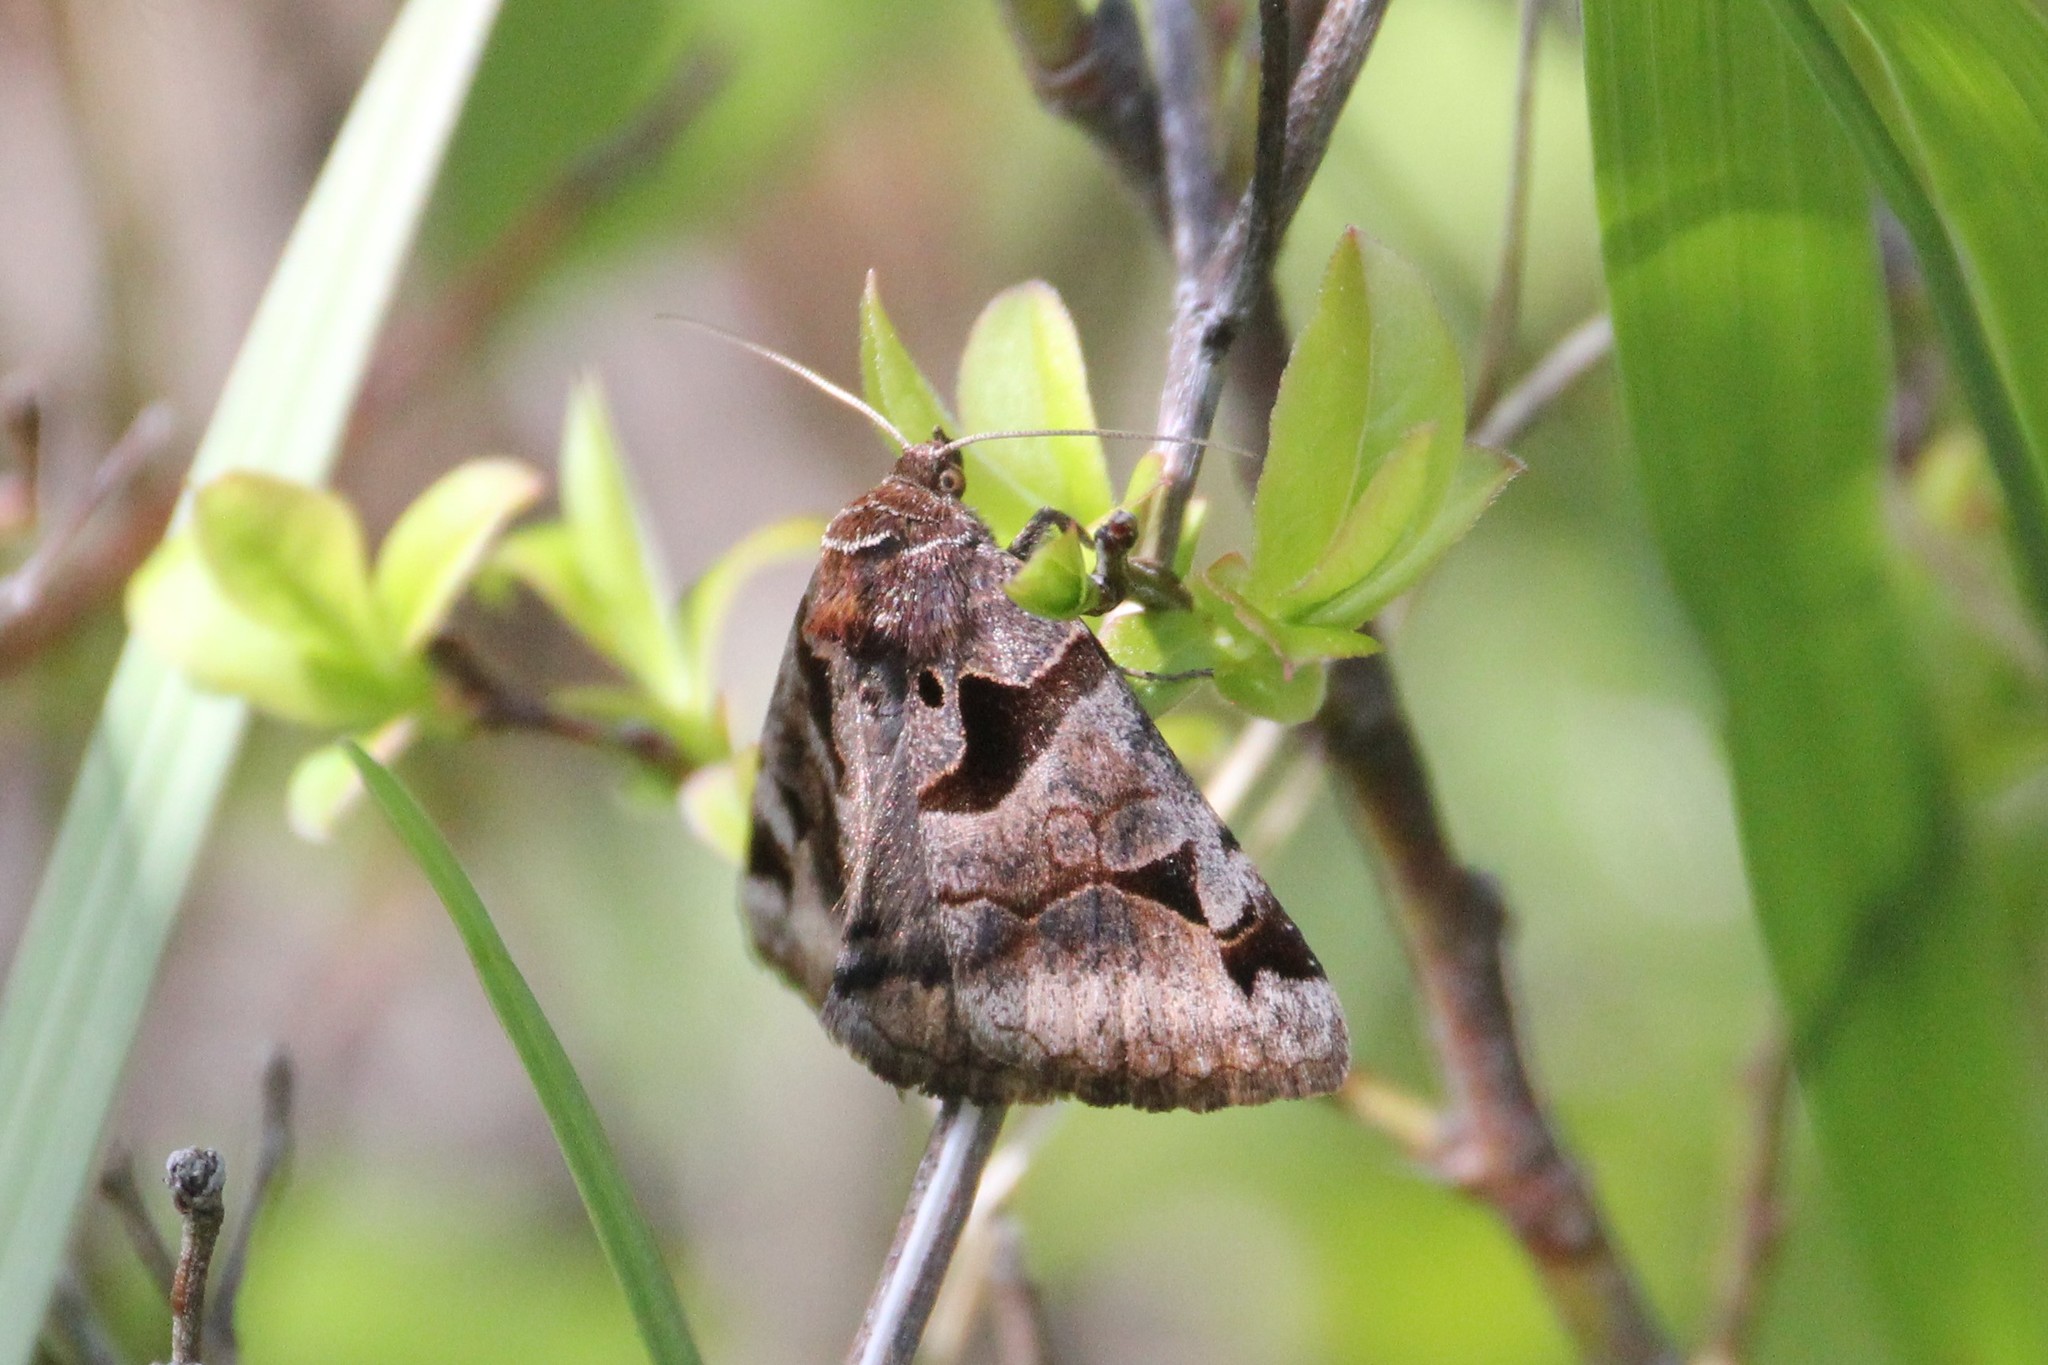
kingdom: Animalia
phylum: Arthropoda
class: Insecta
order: Lepidoptera
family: Erebidae
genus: Euclidia
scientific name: Euclidia cuspidea
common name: Toothed somberwing
